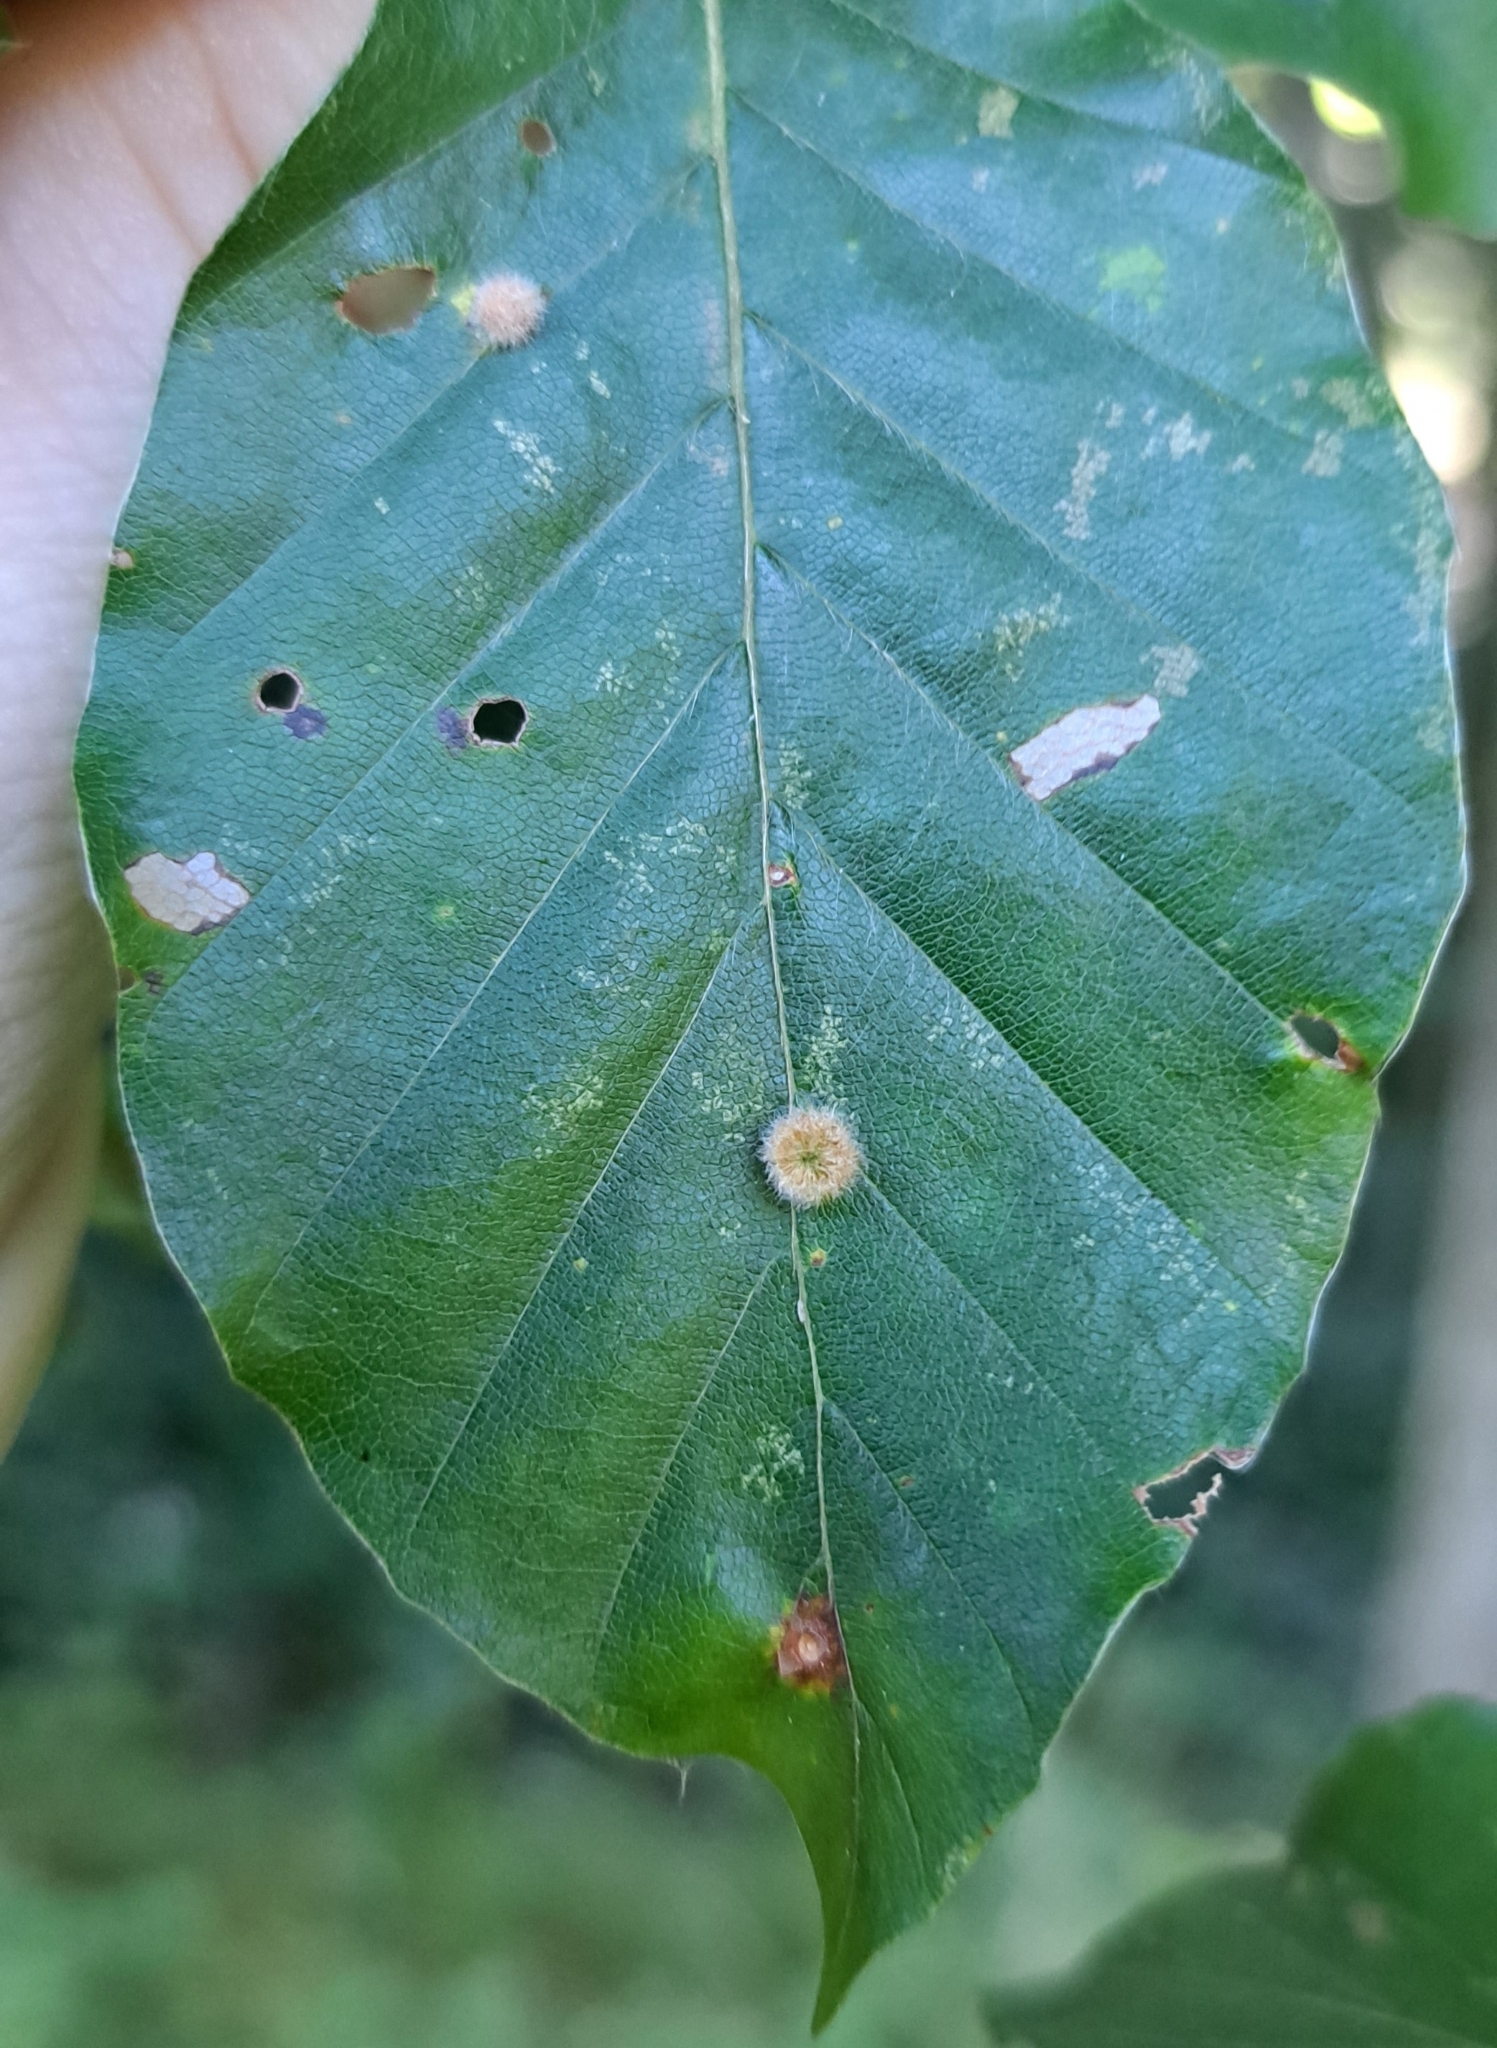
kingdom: Animalia
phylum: Arthropoda
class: Insecta
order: Diptera
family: Cecidomyiidae
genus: Hartigiola
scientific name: Hartigiola annulipes
